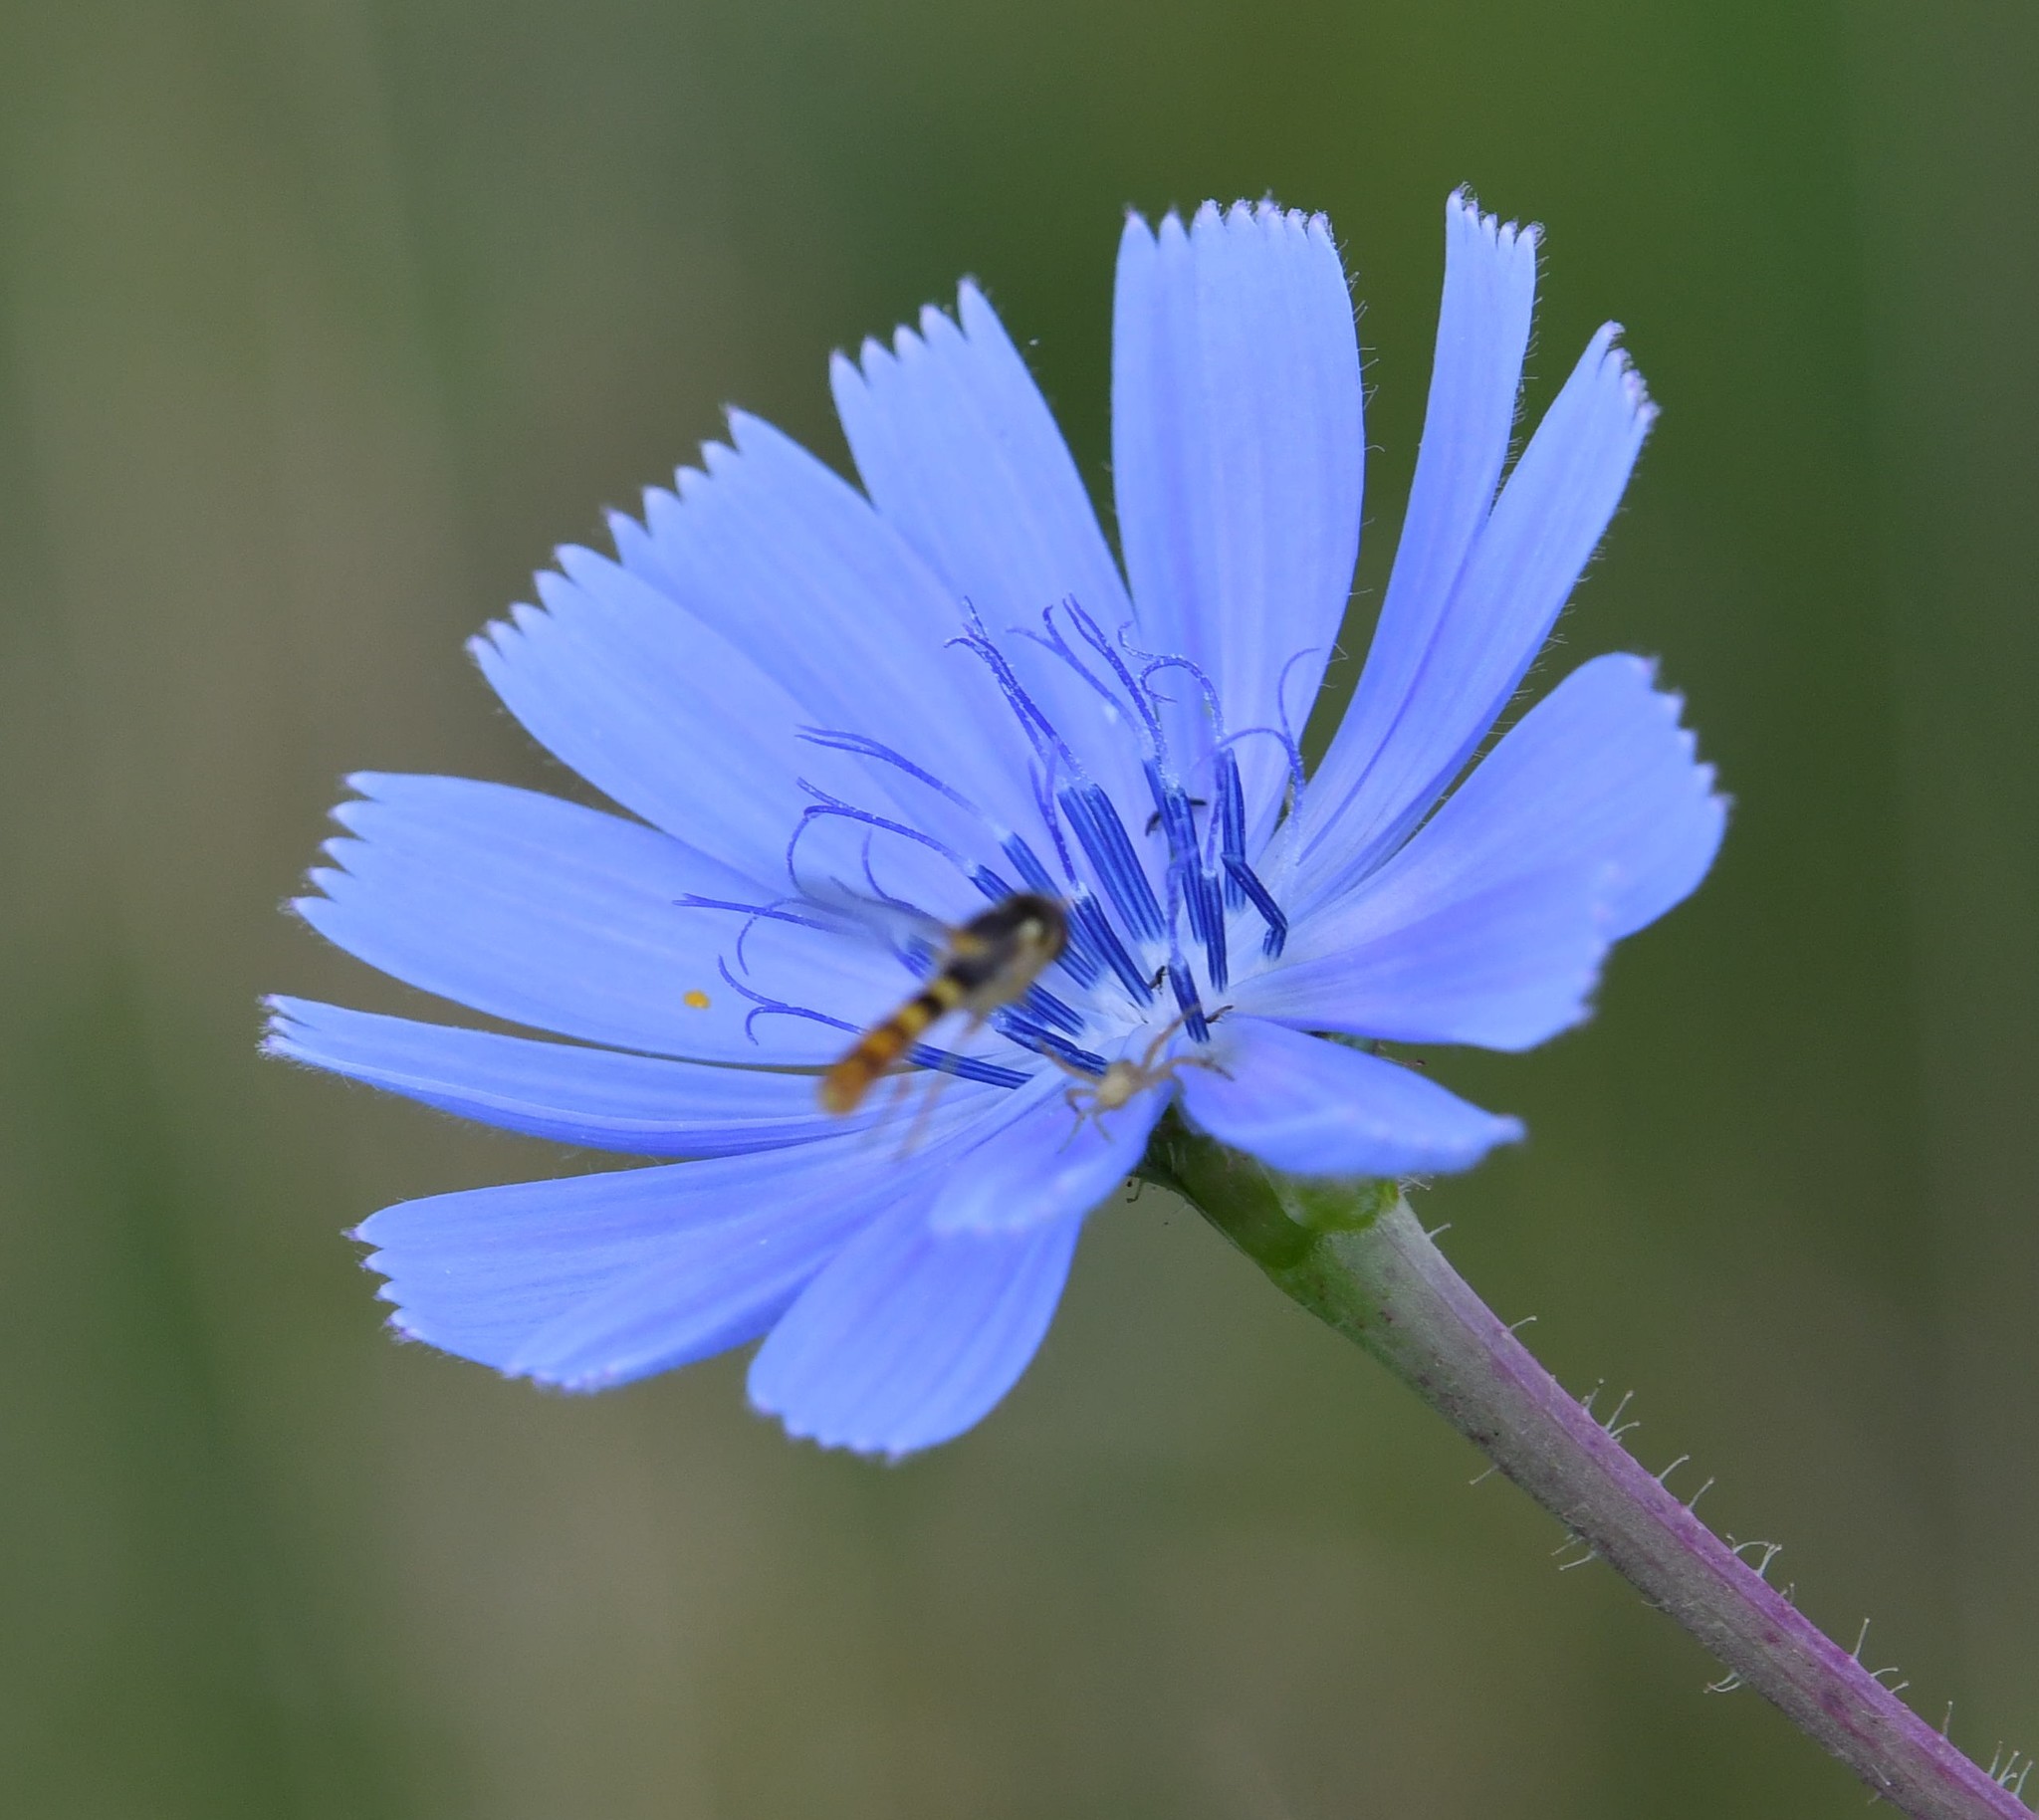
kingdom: Plantae
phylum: Tracheophyta
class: Magnoliopsida
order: Asterales
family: Asteraceae
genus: Cichorium
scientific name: Cichorium intybus
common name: Chicory
